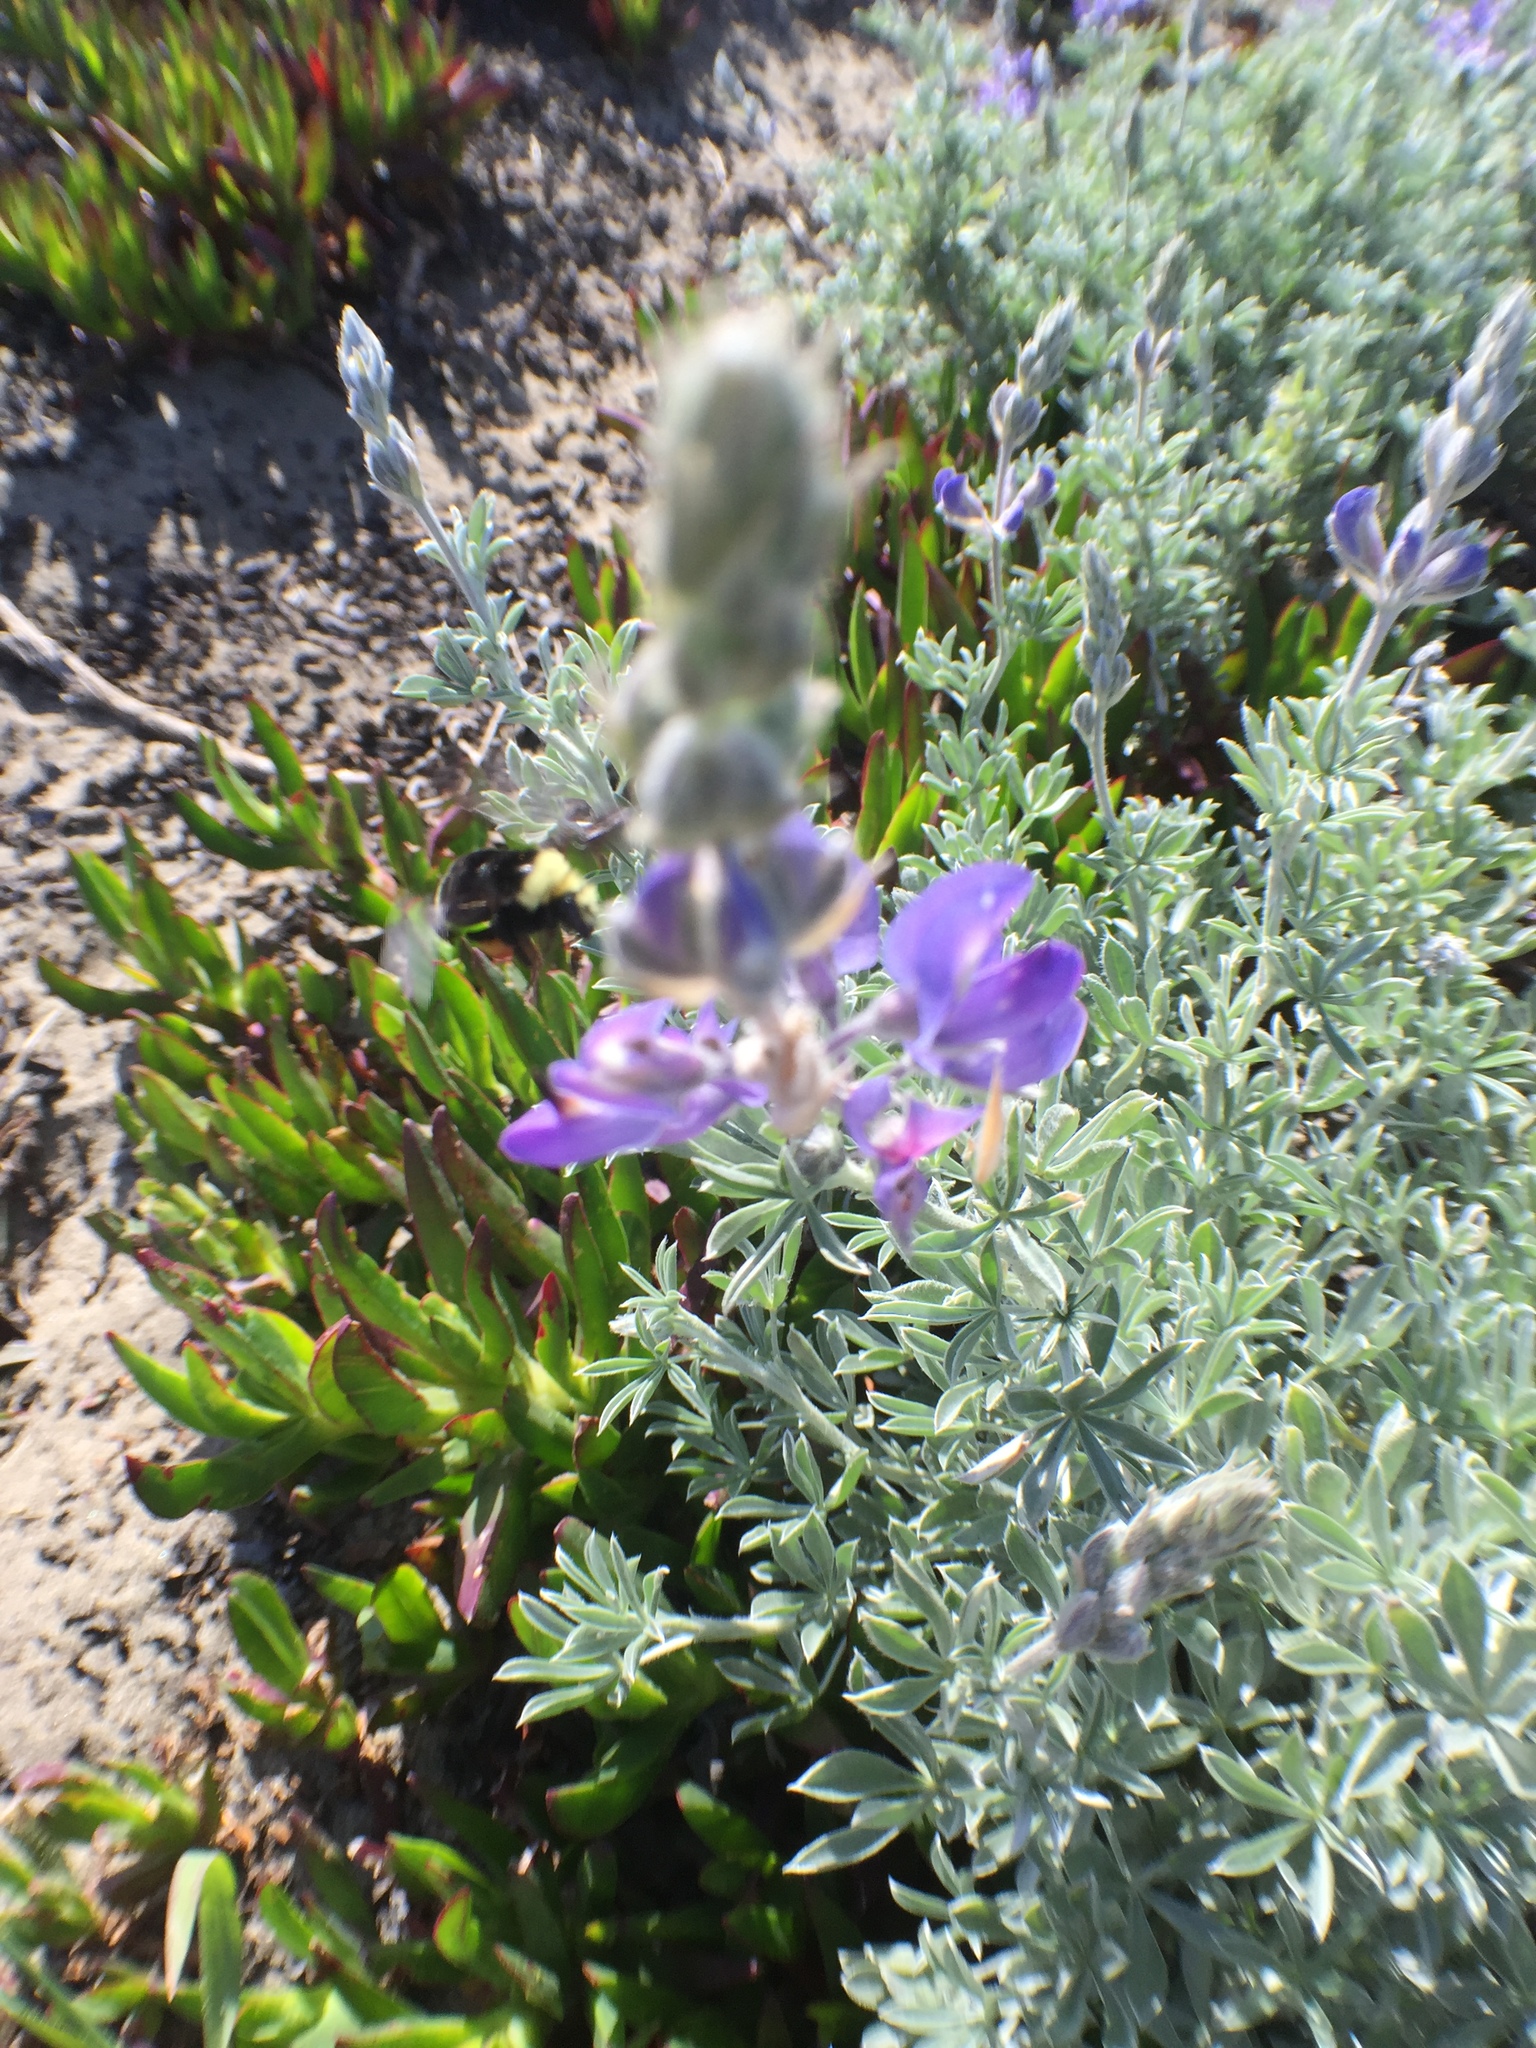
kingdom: Animalia
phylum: Arthropoda
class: Insecta
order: Hymenoptera
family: Apidae
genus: Bombus
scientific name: Bombus vosnesenskii
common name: Vosnesensky bumble bee
